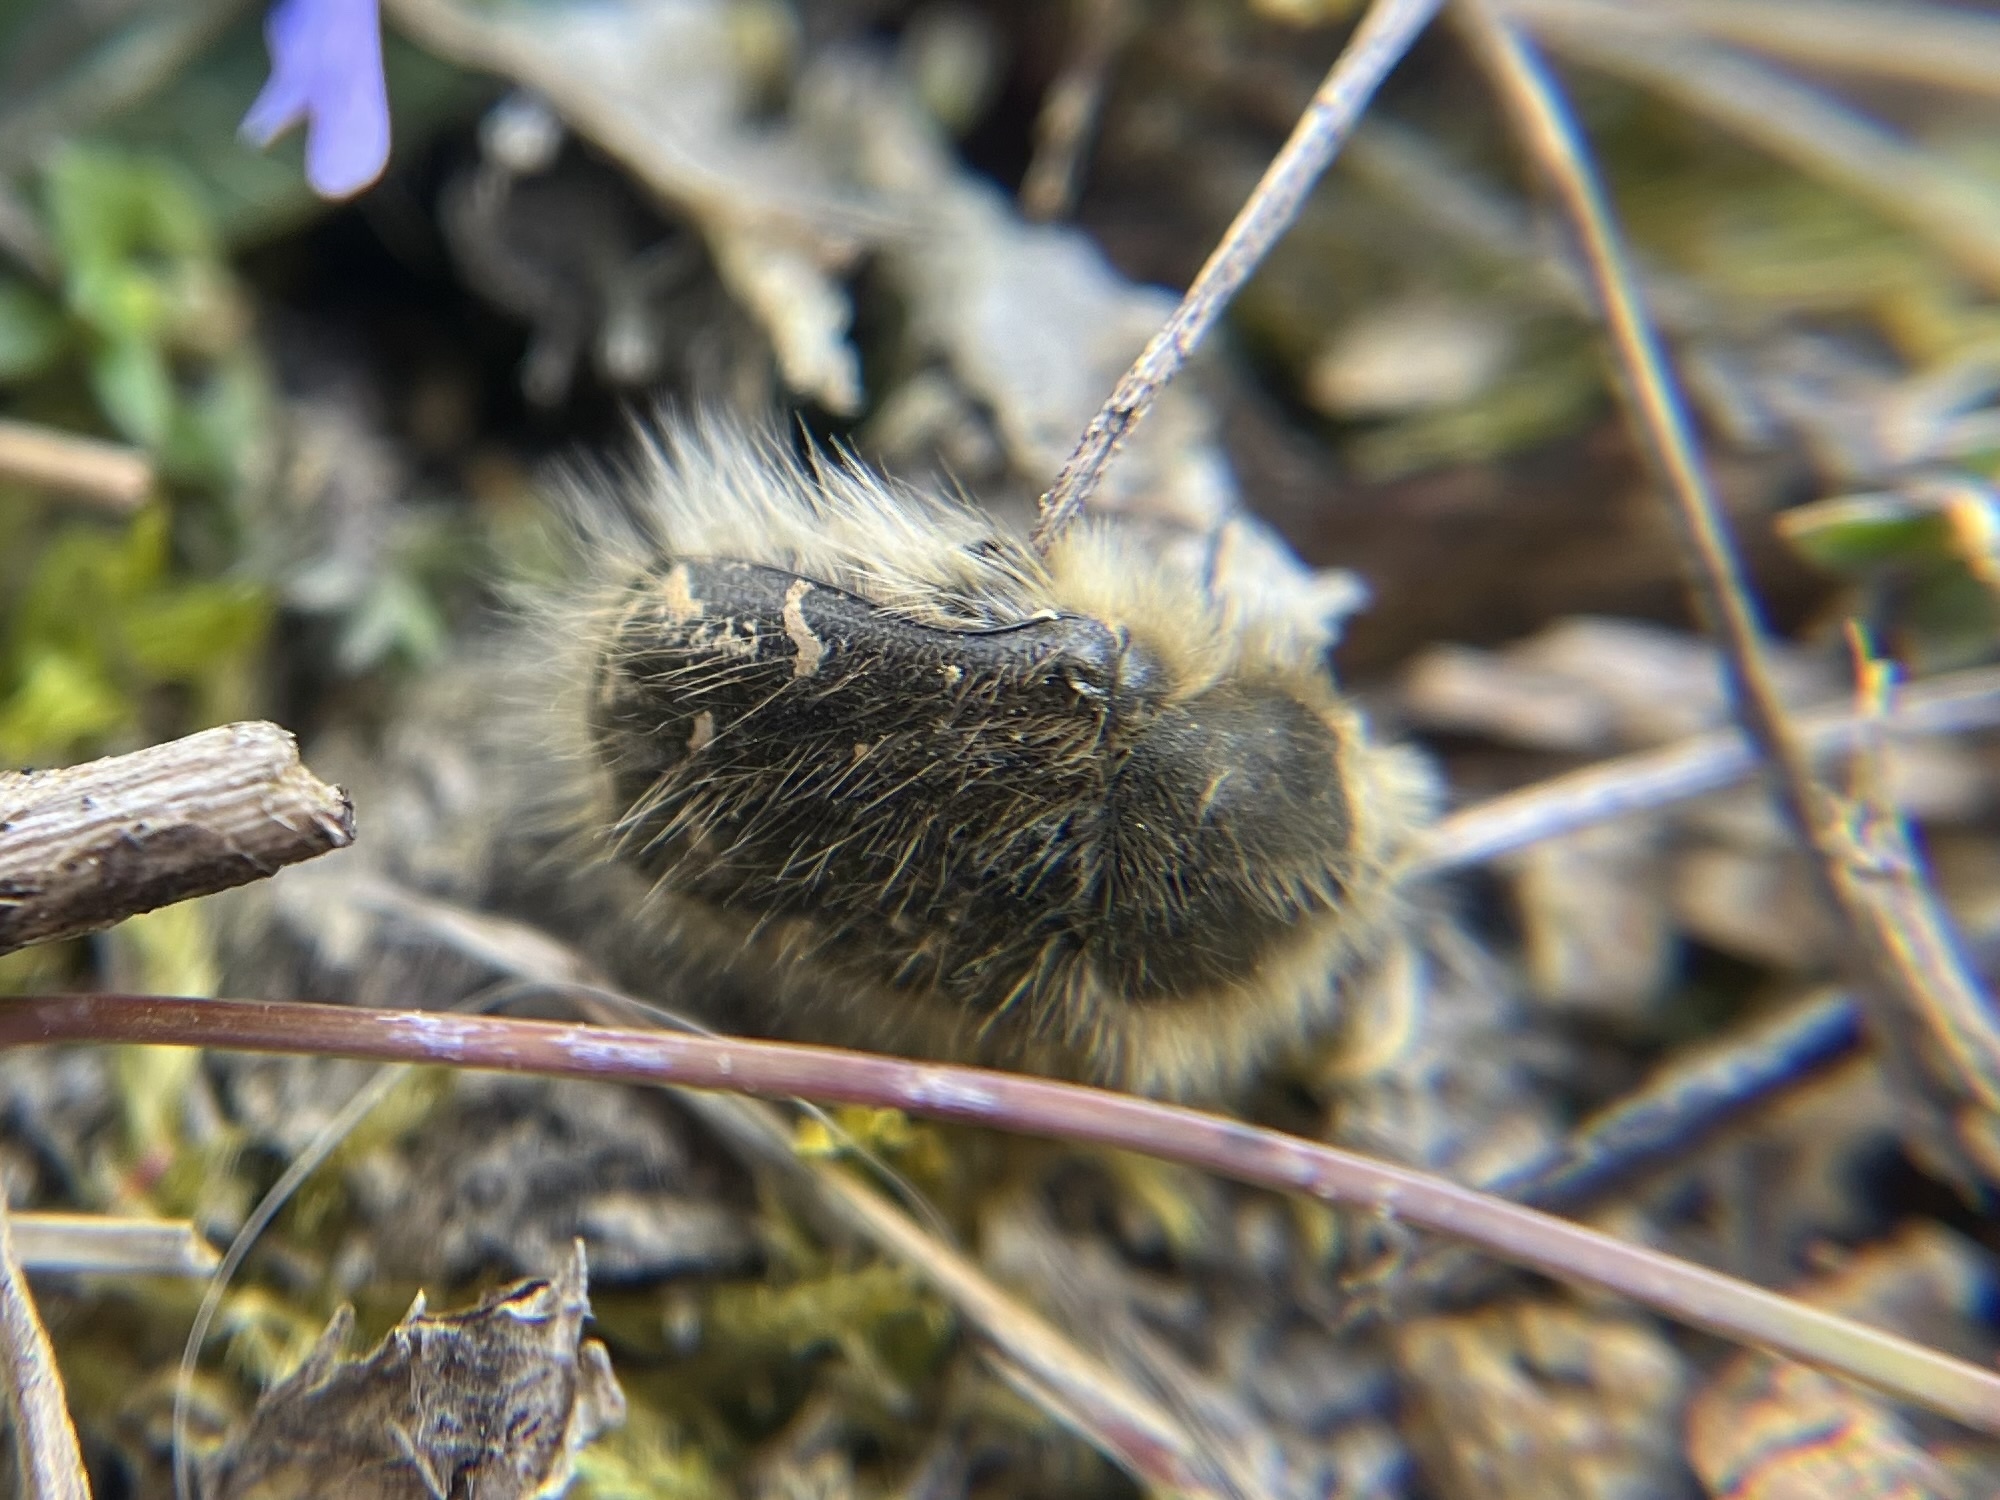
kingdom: Animalia
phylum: Arthropoda
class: Insecta
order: Coleoptera
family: Scarabaeidae
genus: Tropinota
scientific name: Tropinota hirta
